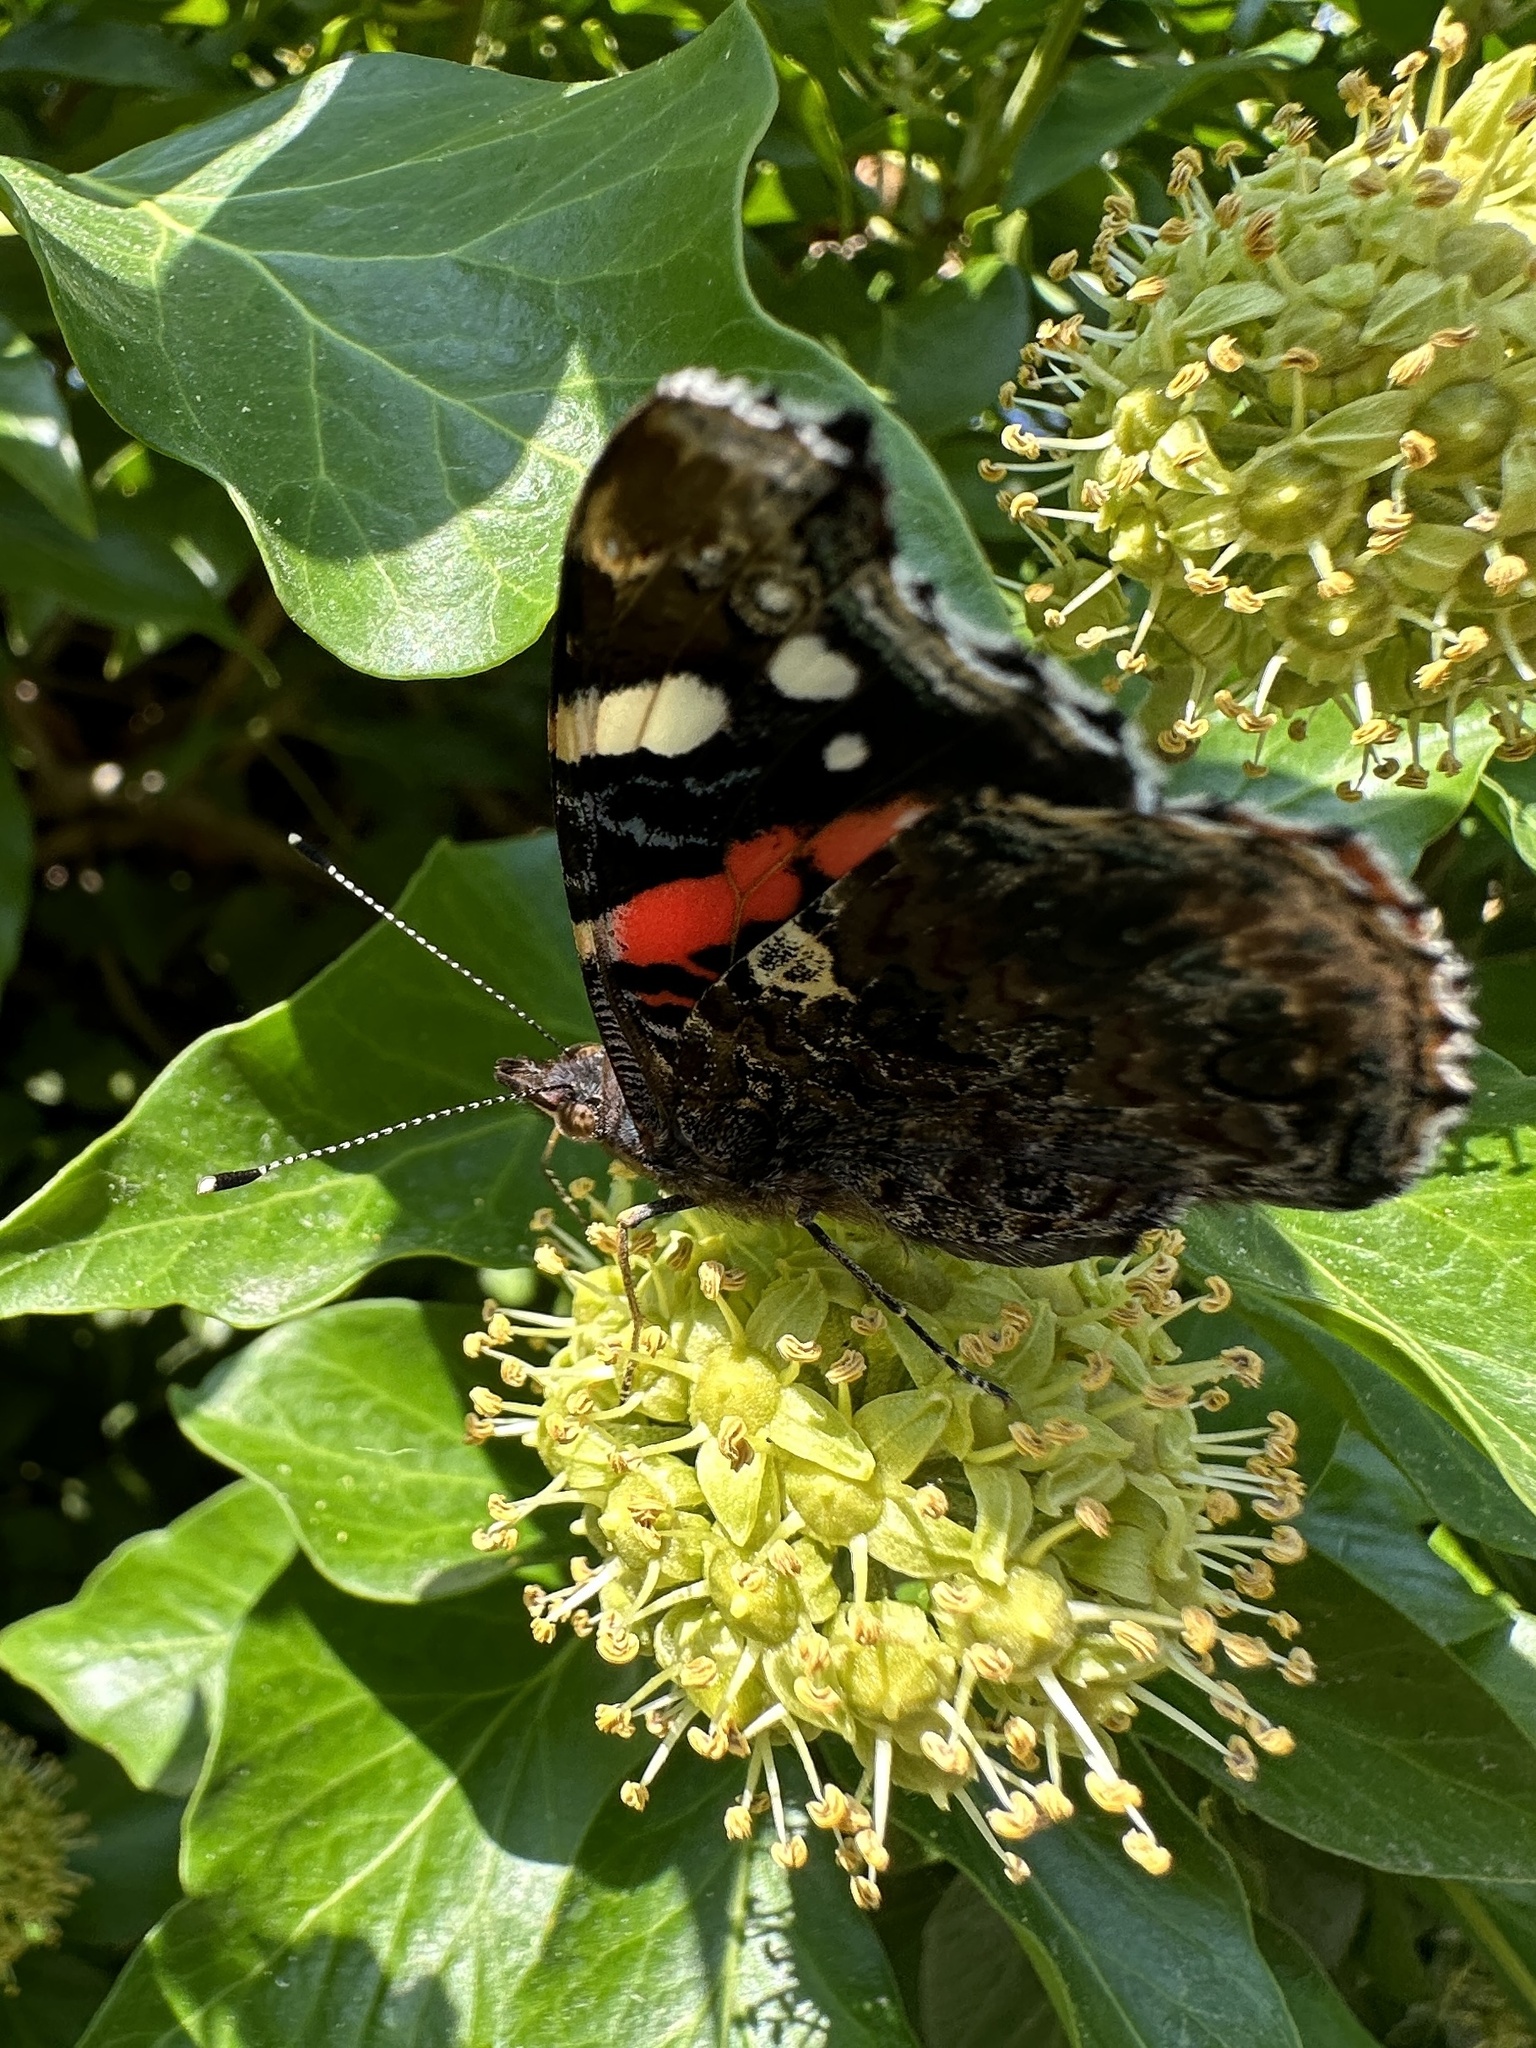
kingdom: Animalia
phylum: Arthropoda
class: Insecta
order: Lepidoptera
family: Nymphalidae
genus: Vanessa
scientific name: Vanessa atalanta
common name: Red admiral
